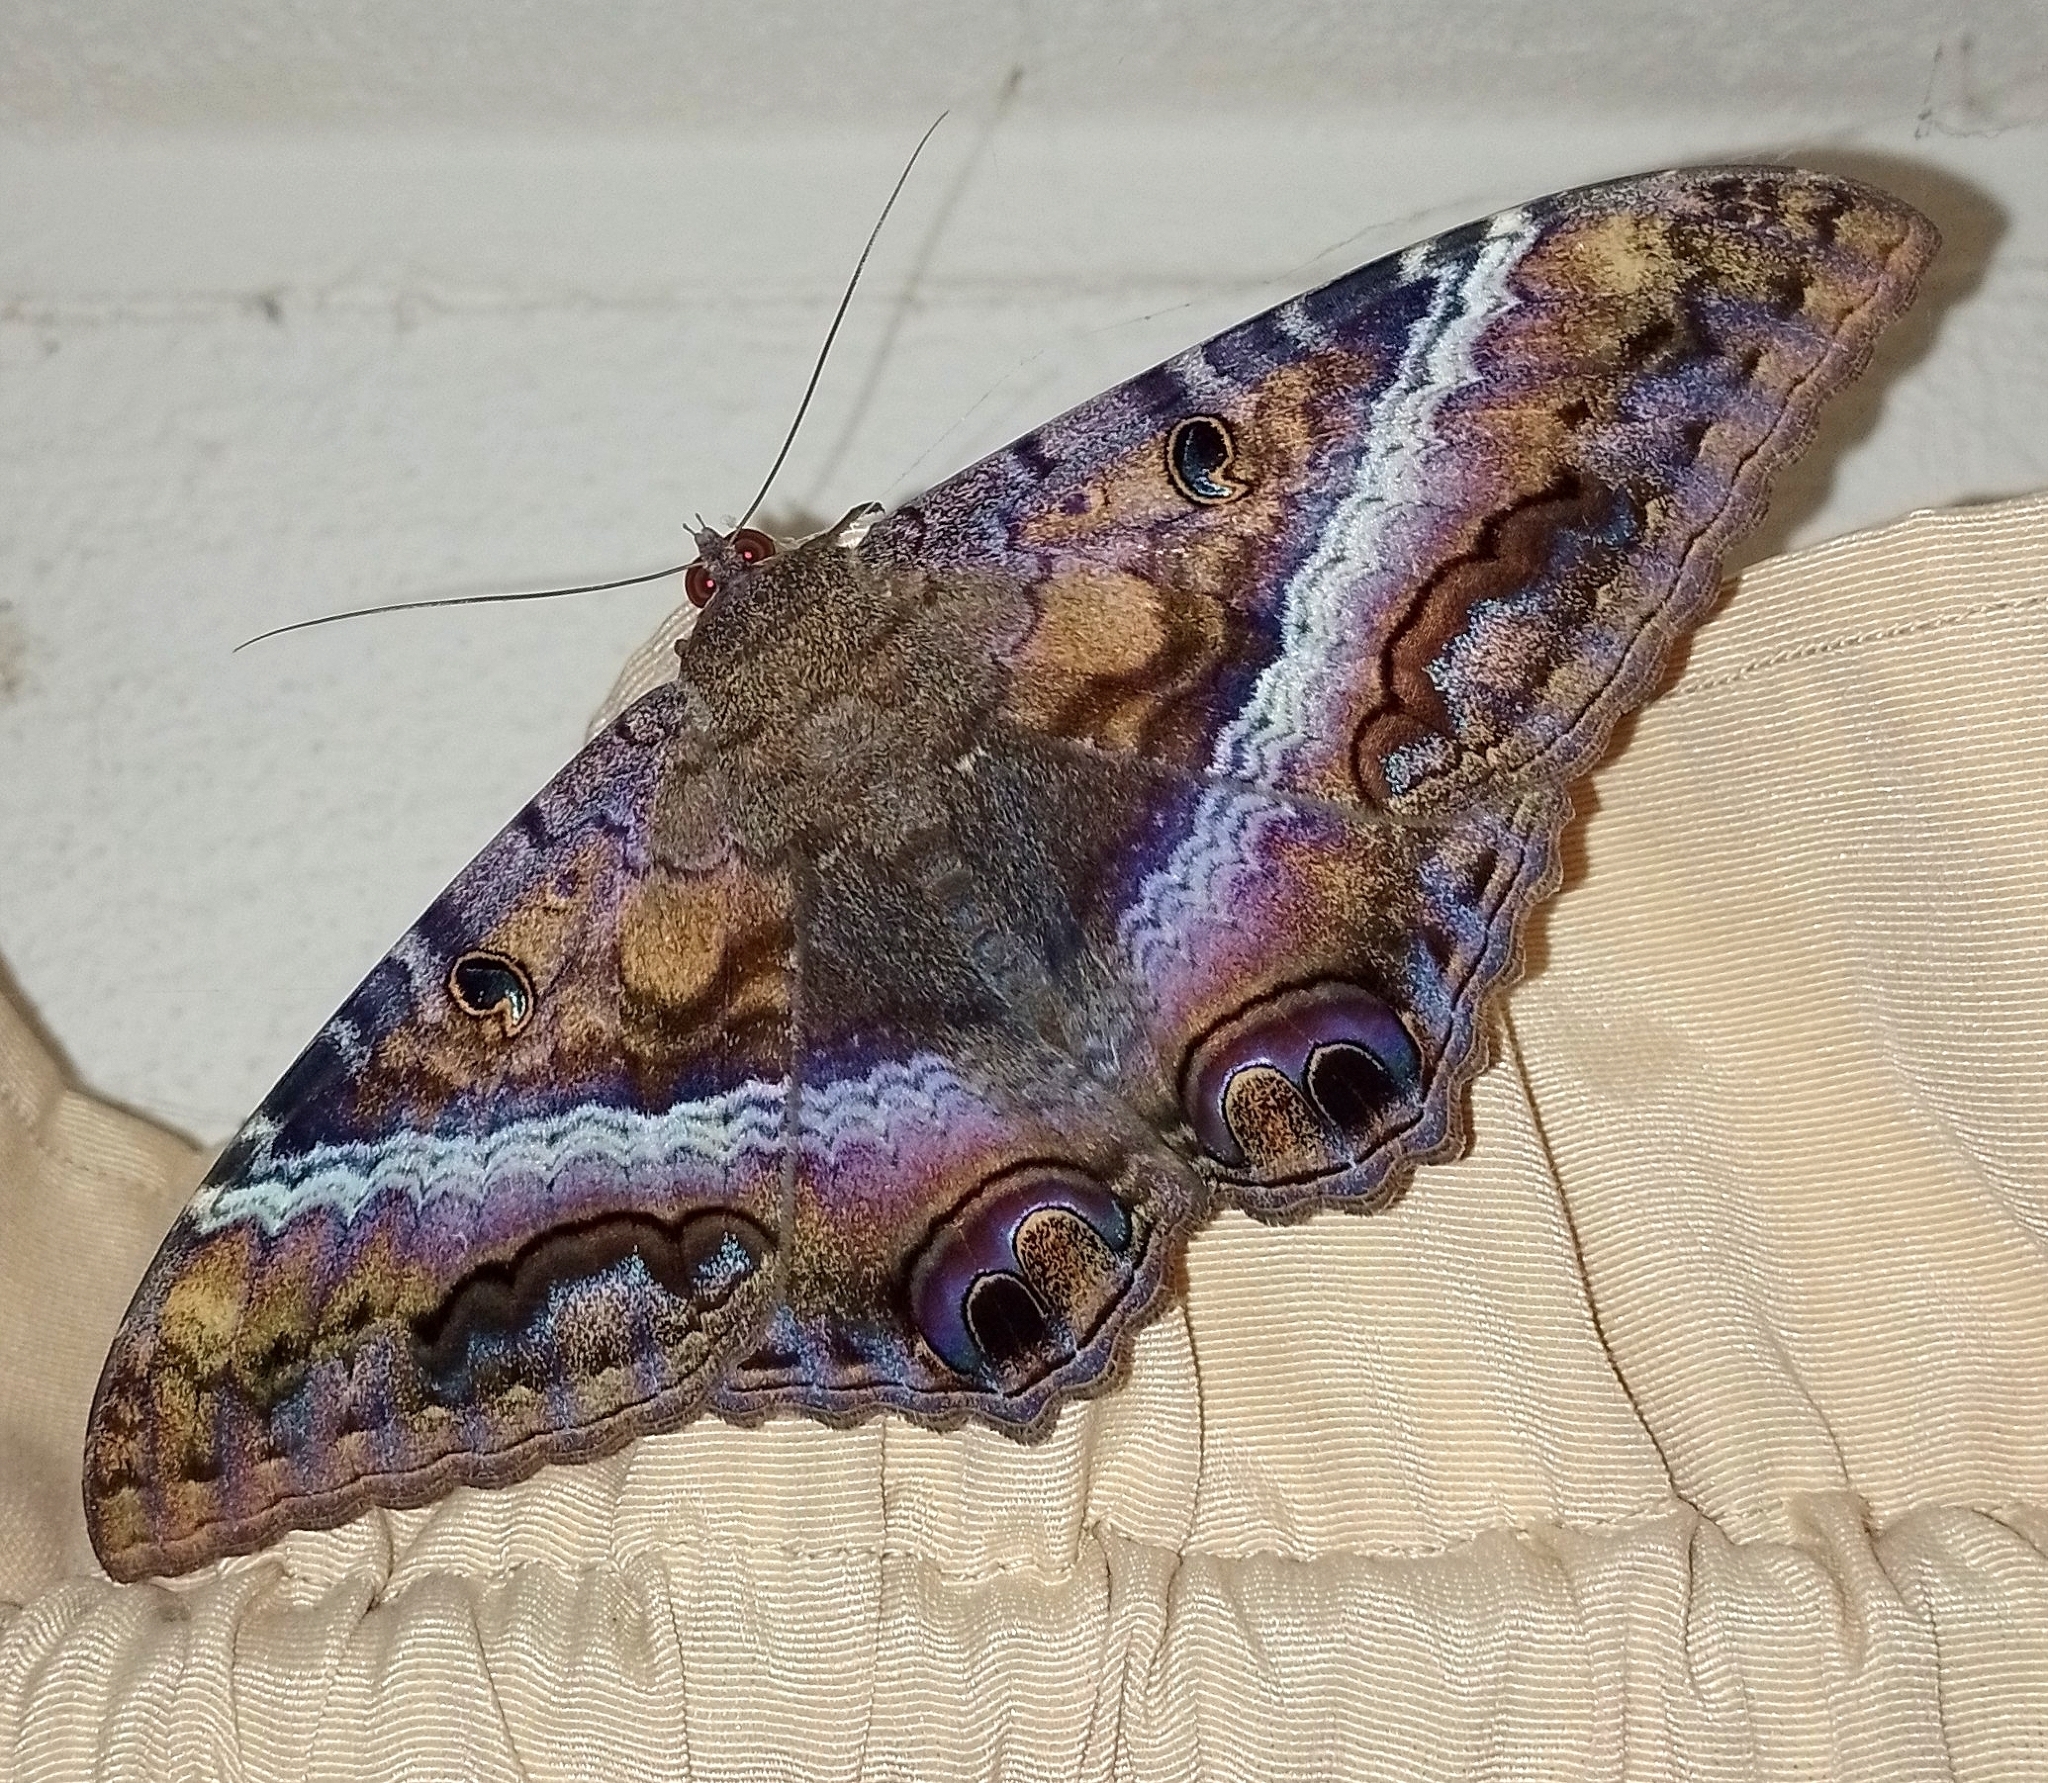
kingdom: Animalia
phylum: Arthropoda
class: Insecta
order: Lepidoptera
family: Erebidae
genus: Ascalapha
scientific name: Ascalapha odorata
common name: Black witch
